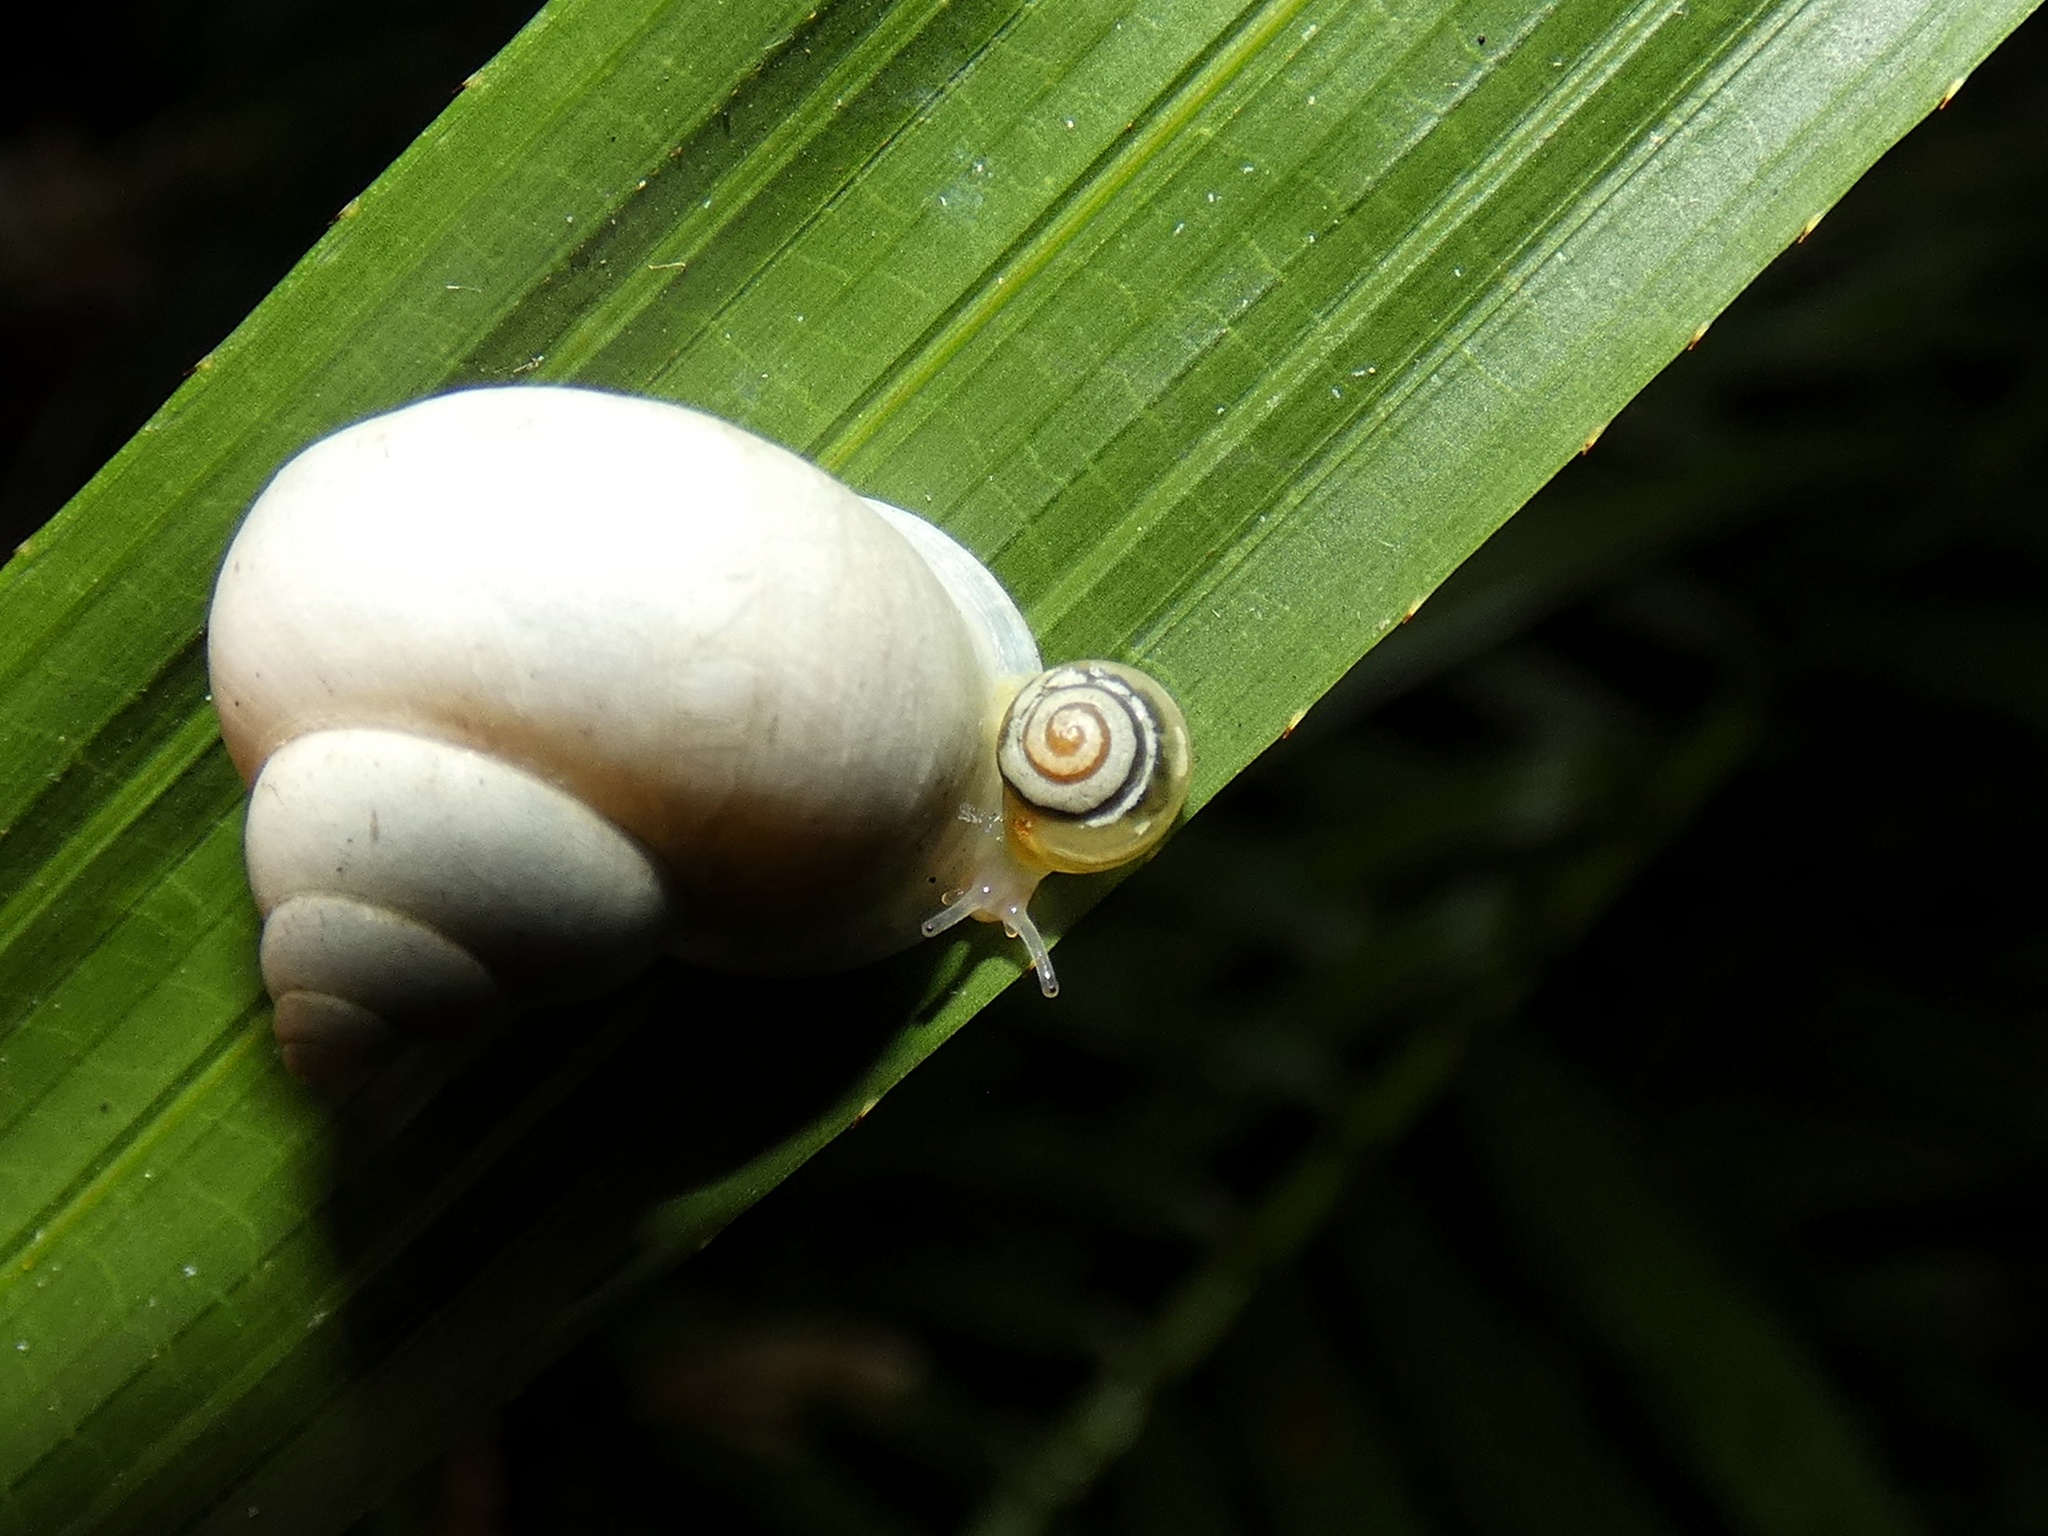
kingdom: Animalia
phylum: Mollusca
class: Gastropoda
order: Stylommatophora
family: Euconulidae
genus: Coneuplecta
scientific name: Coneuplecta pampini
